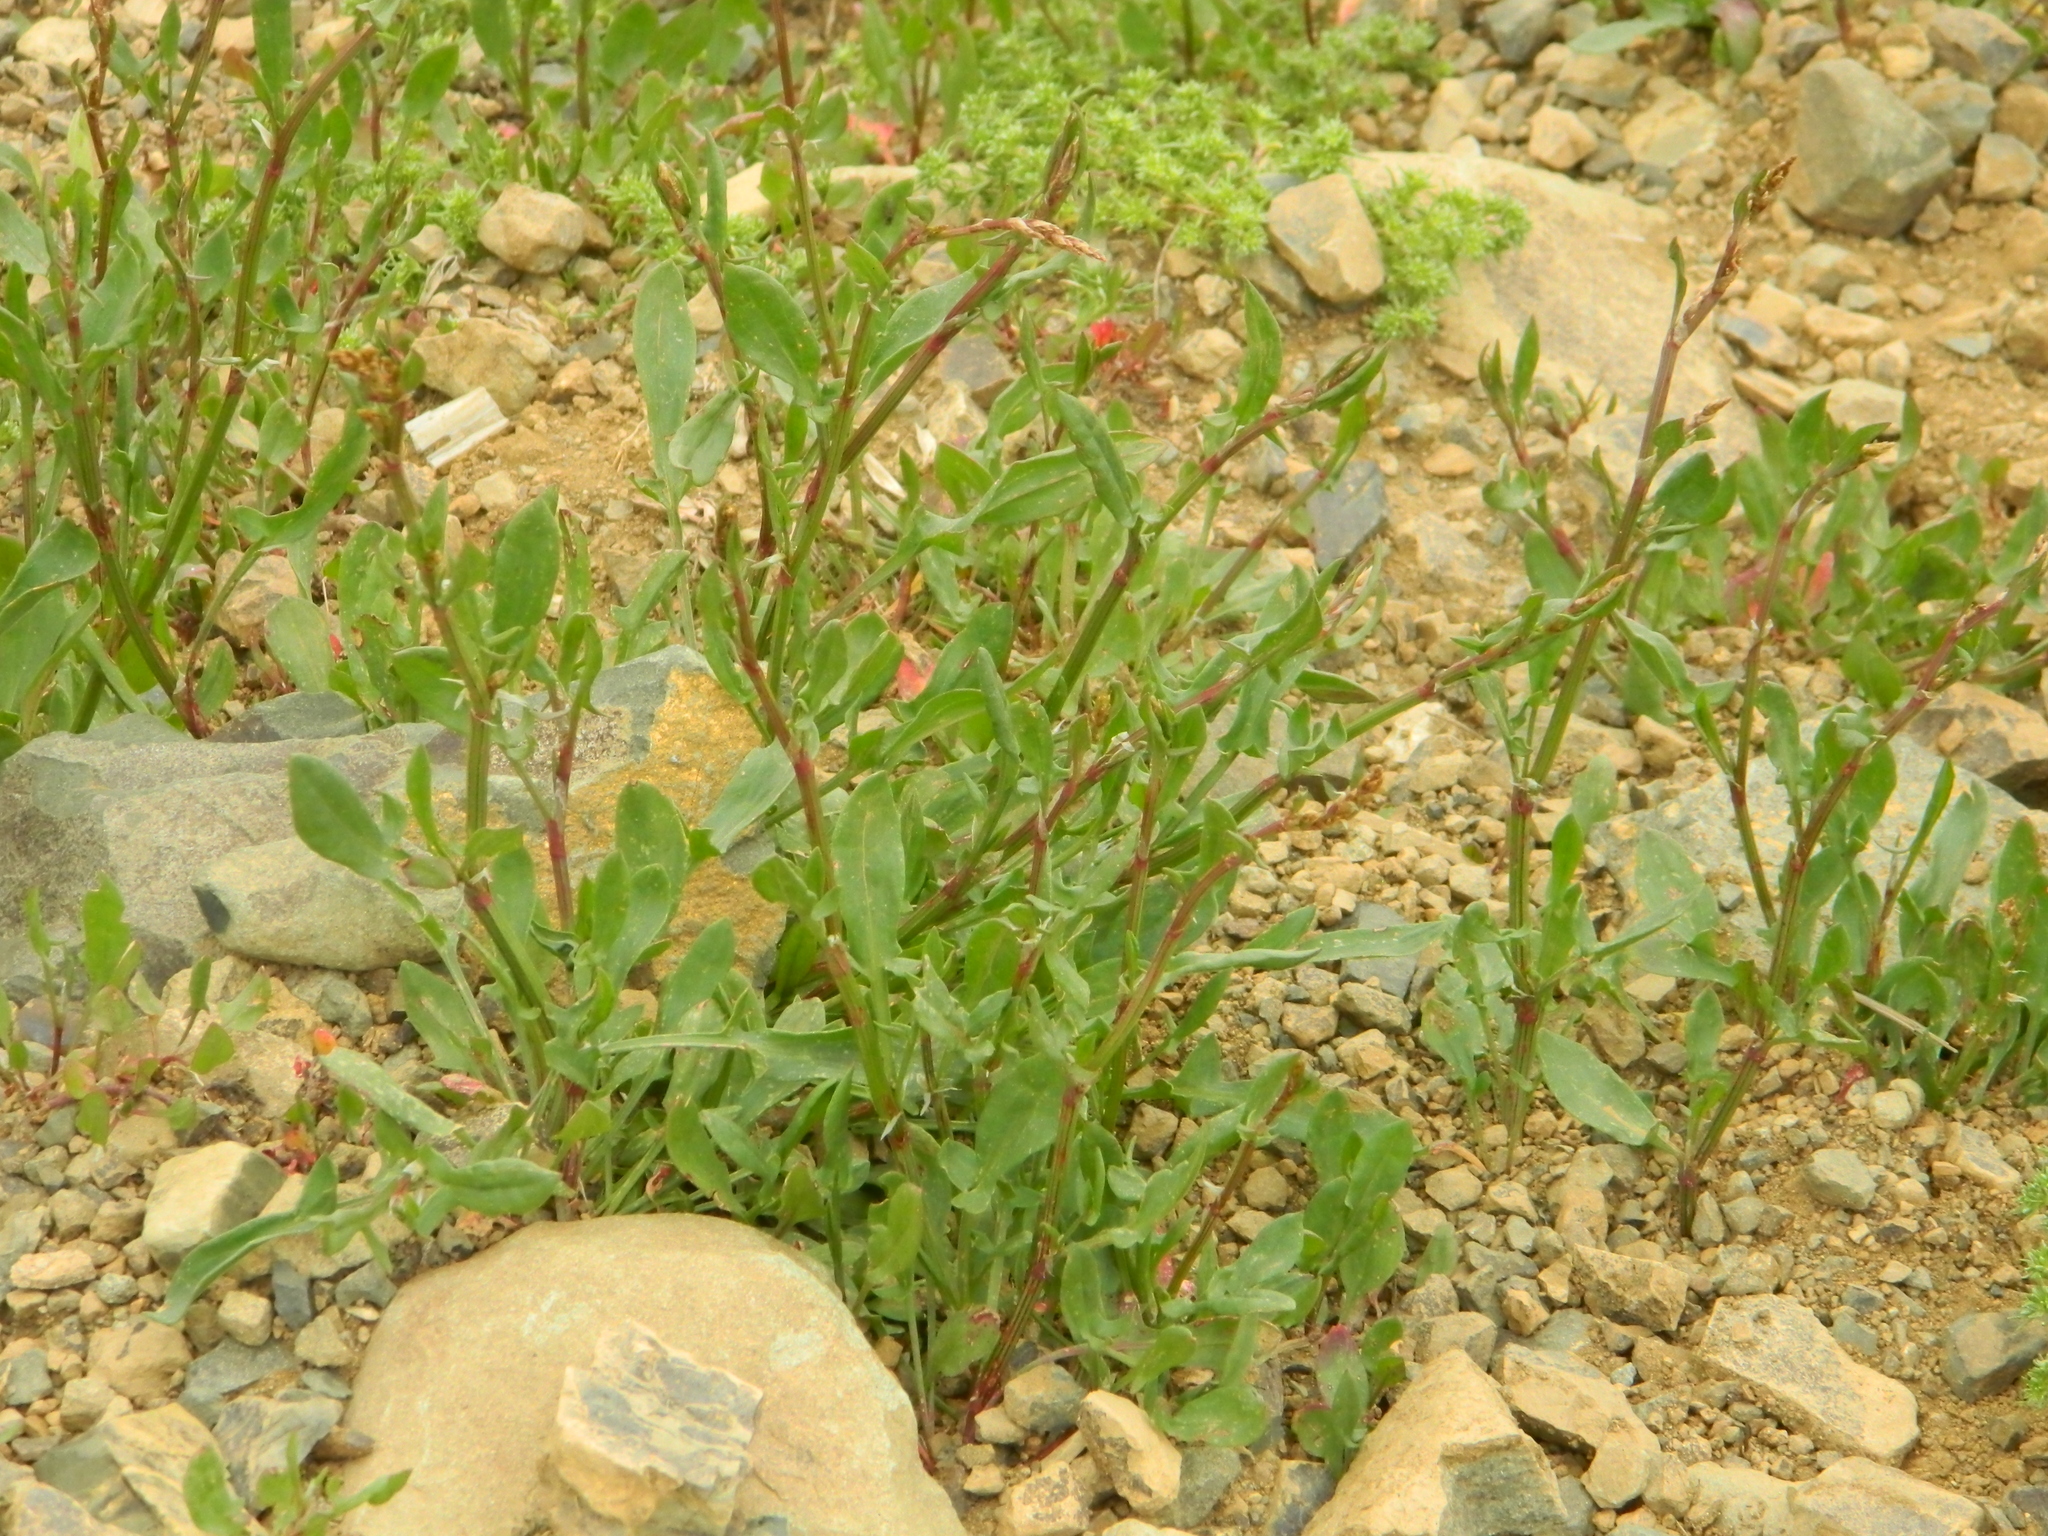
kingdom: Plantae
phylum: Tracheophyta
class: Magnoliopsida
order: Caryophyllales
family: Polygonaceae
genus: Rumex
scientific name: Rumex acetosella
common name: Common sheep sorrel
